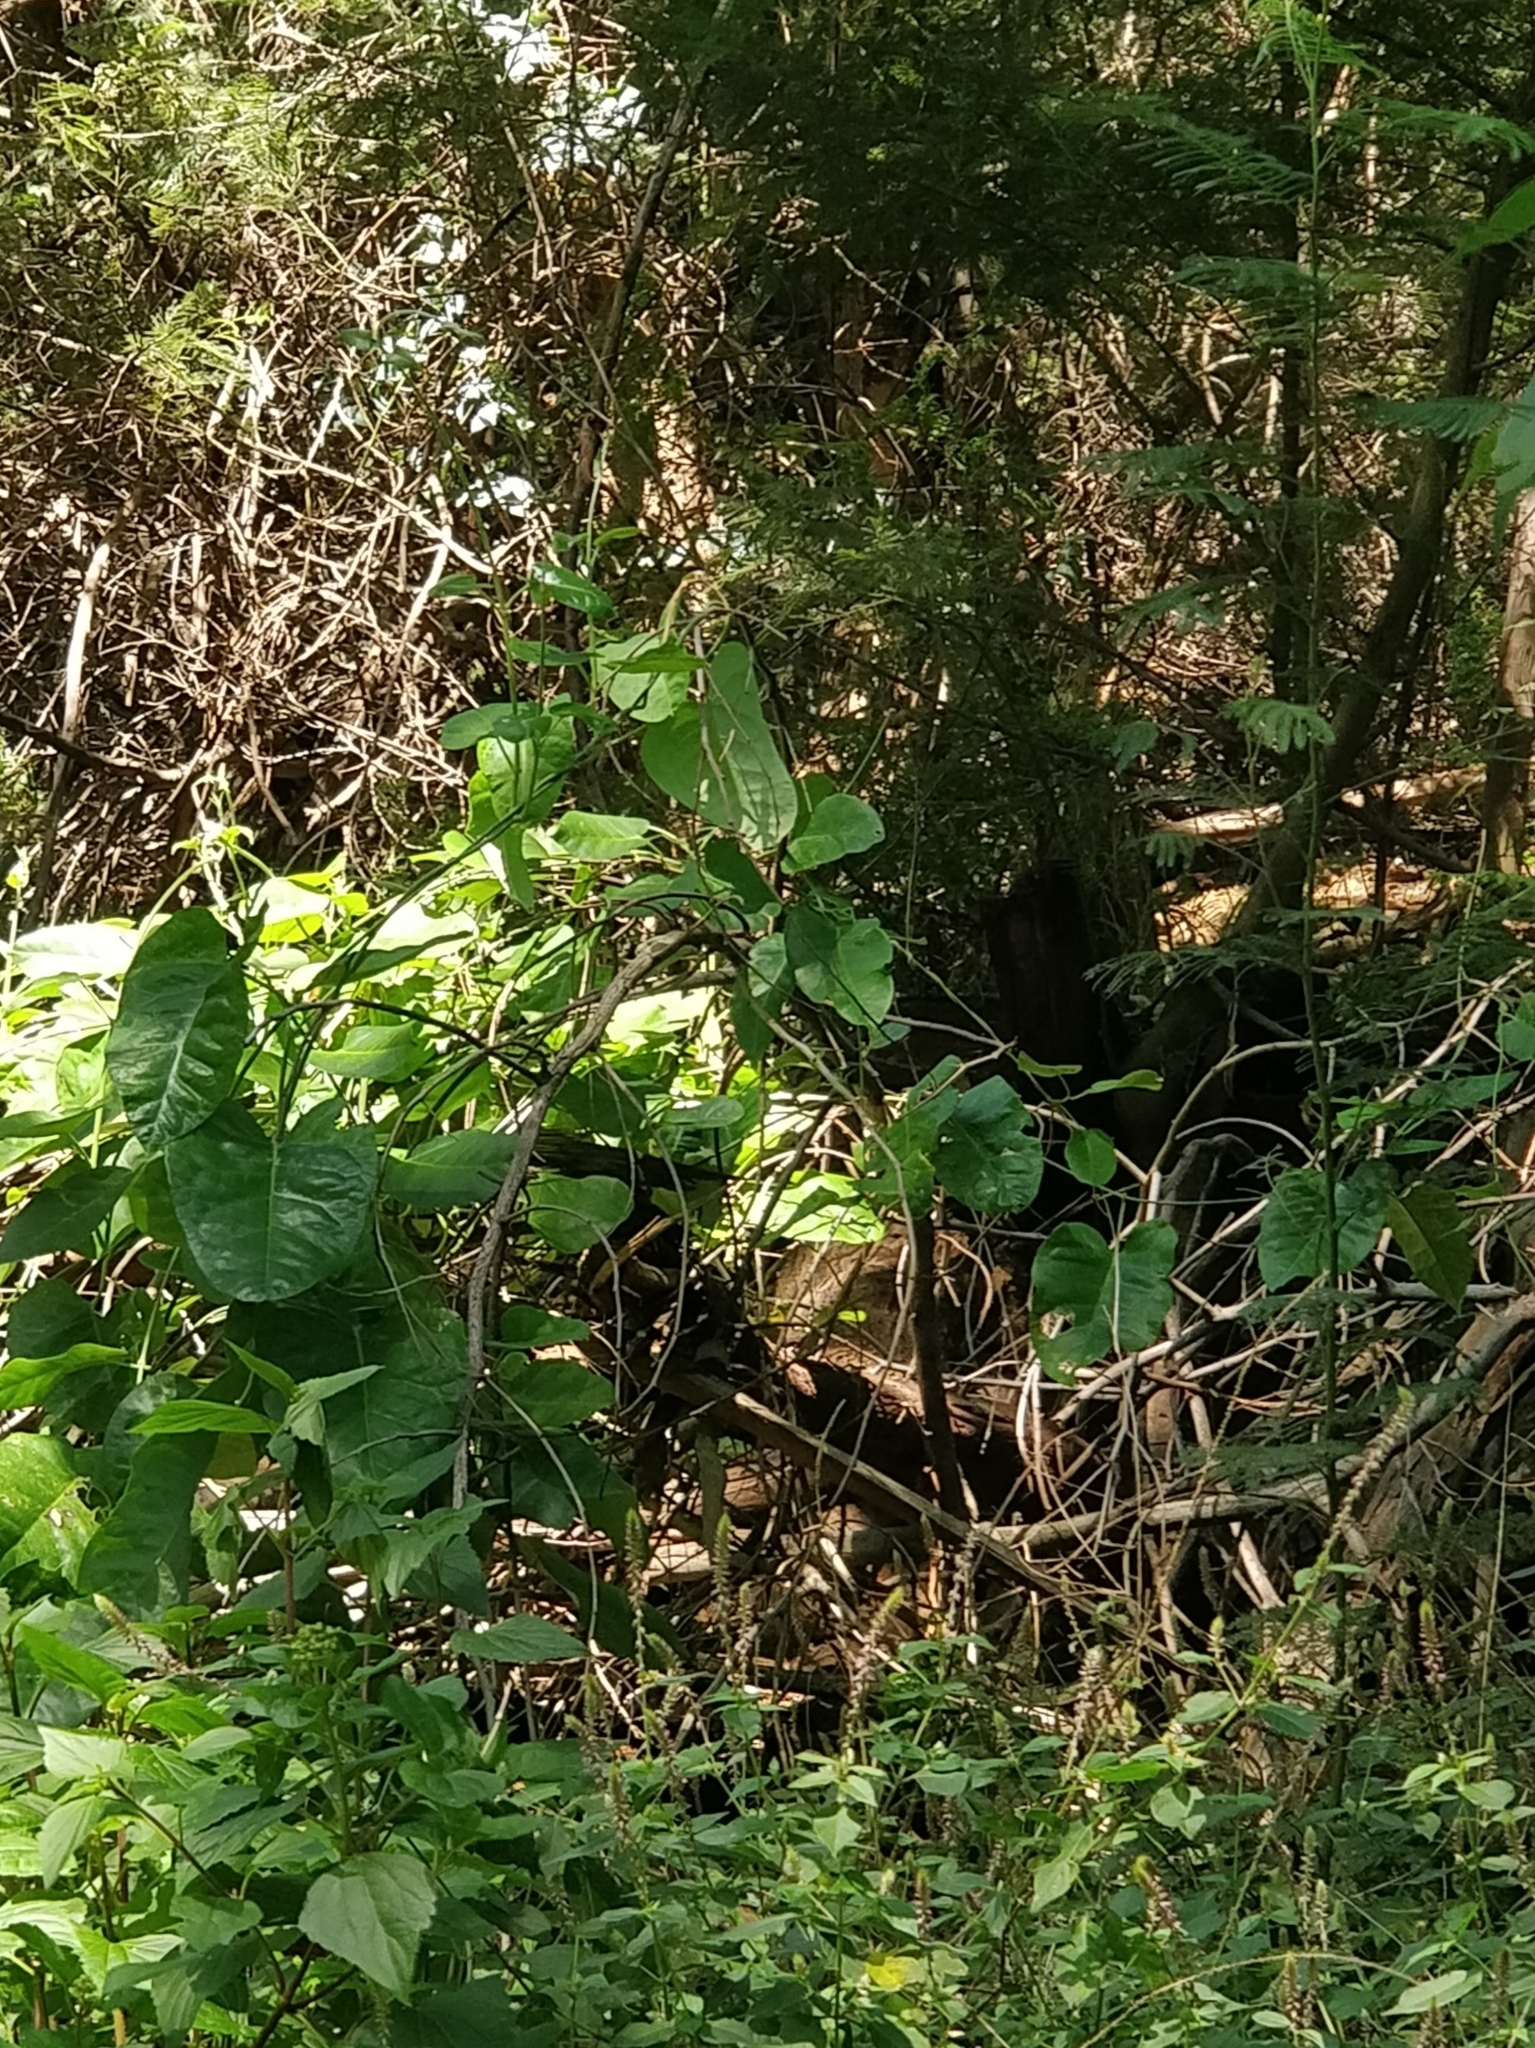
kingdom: Plantae
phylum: Tracheophyta
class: Magnoliopsida
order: Gentianales
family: Apocynaceae
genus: Araujia
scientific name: Araujia sericifera
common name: White bladderflower
